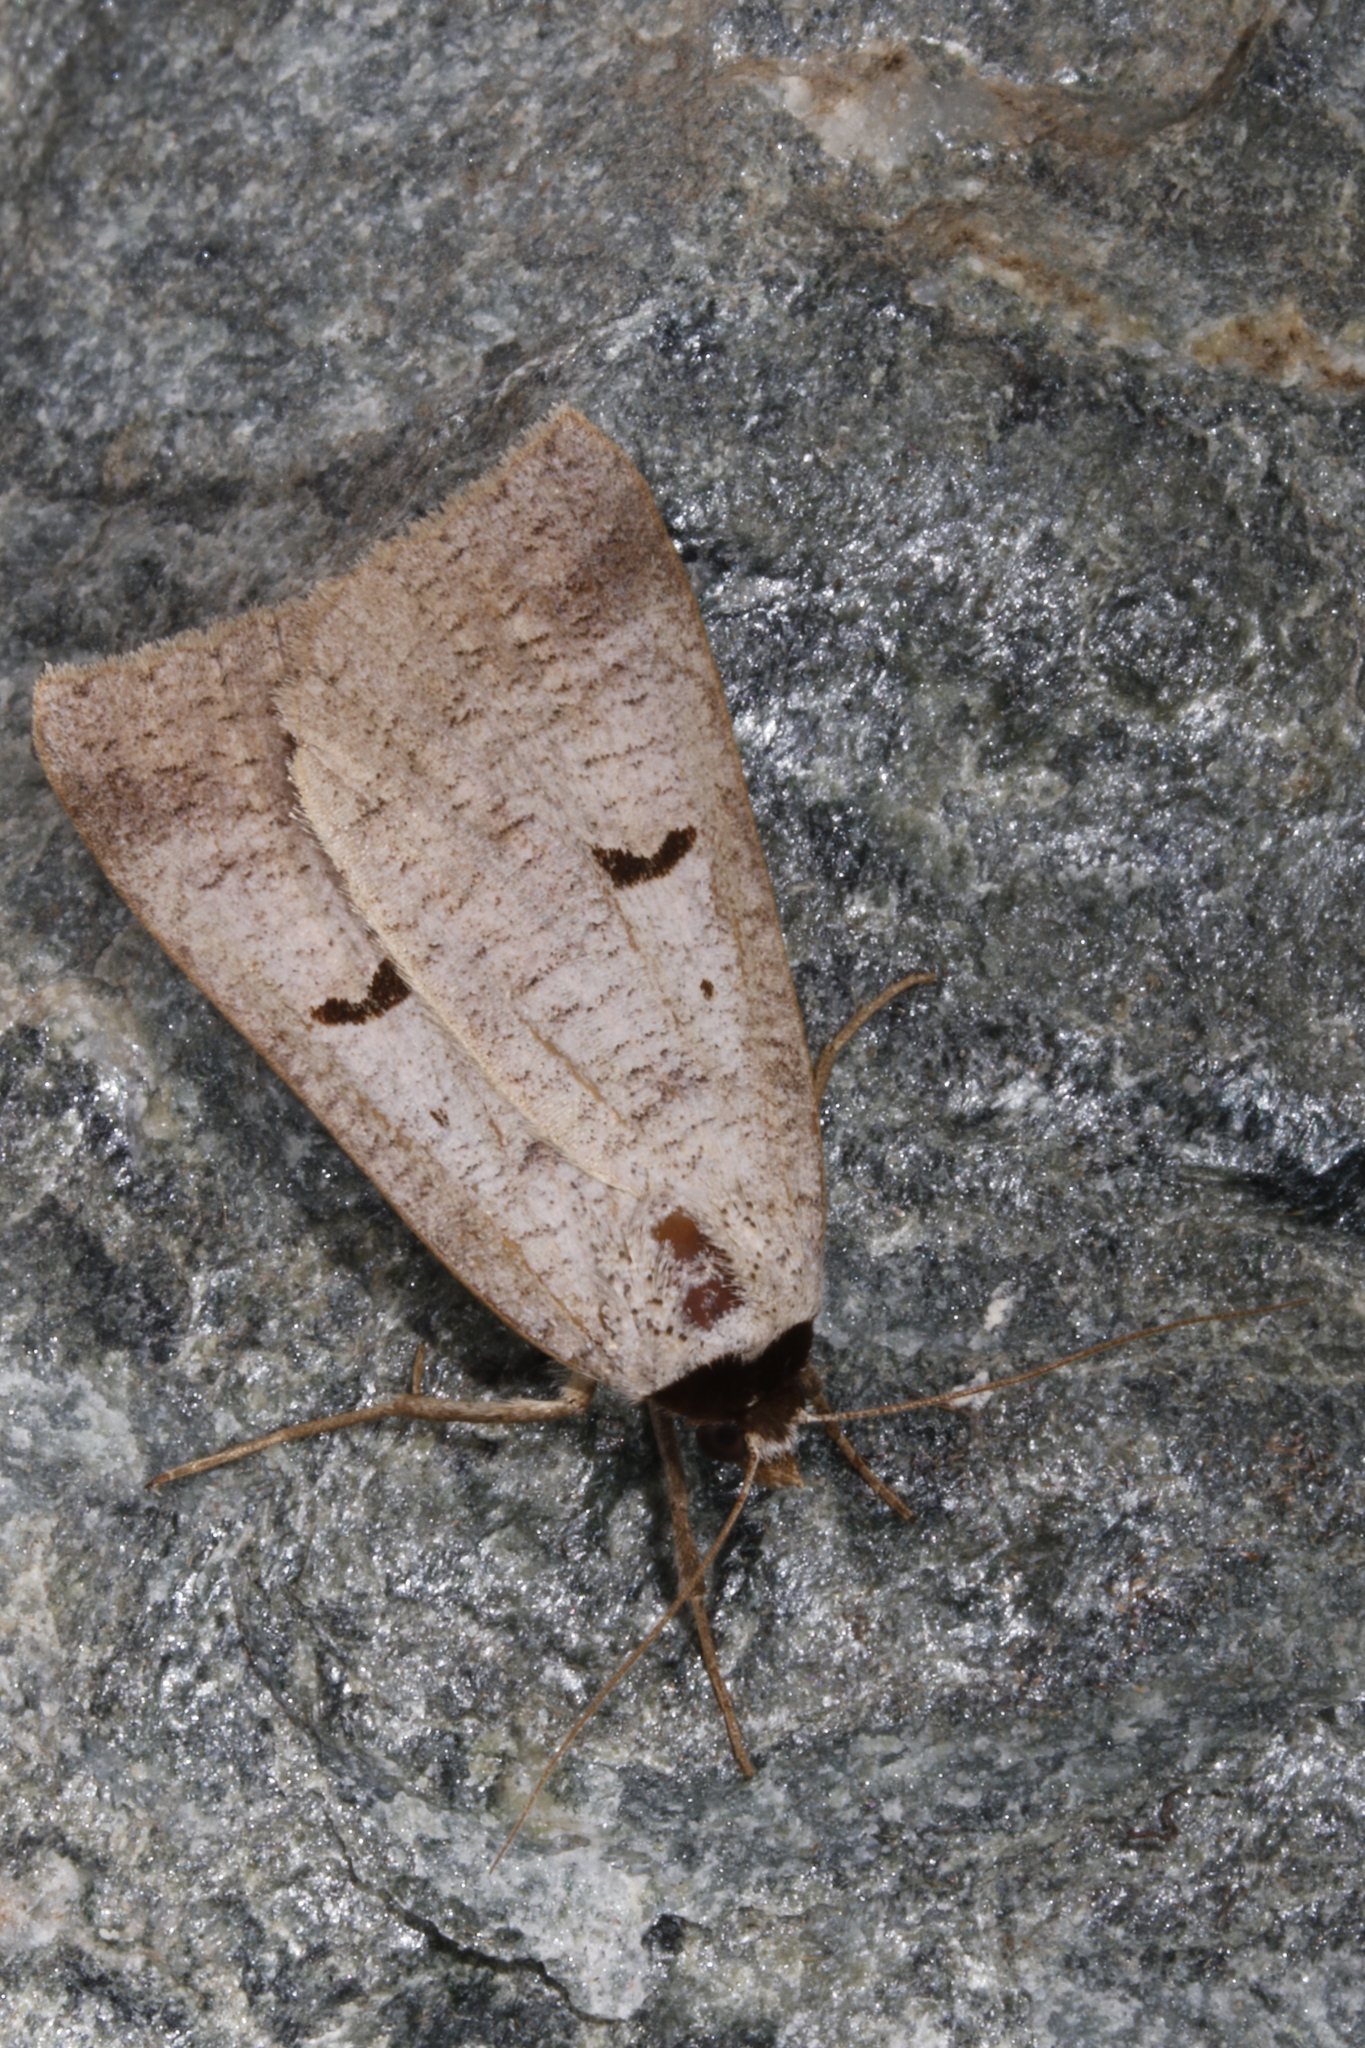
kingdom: Animalia
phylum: Arthropoda
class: Insecta
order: Lepidoptera
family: Erebidae
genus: Lygephila
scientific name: Lygephila pastinum
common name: Blackneck
